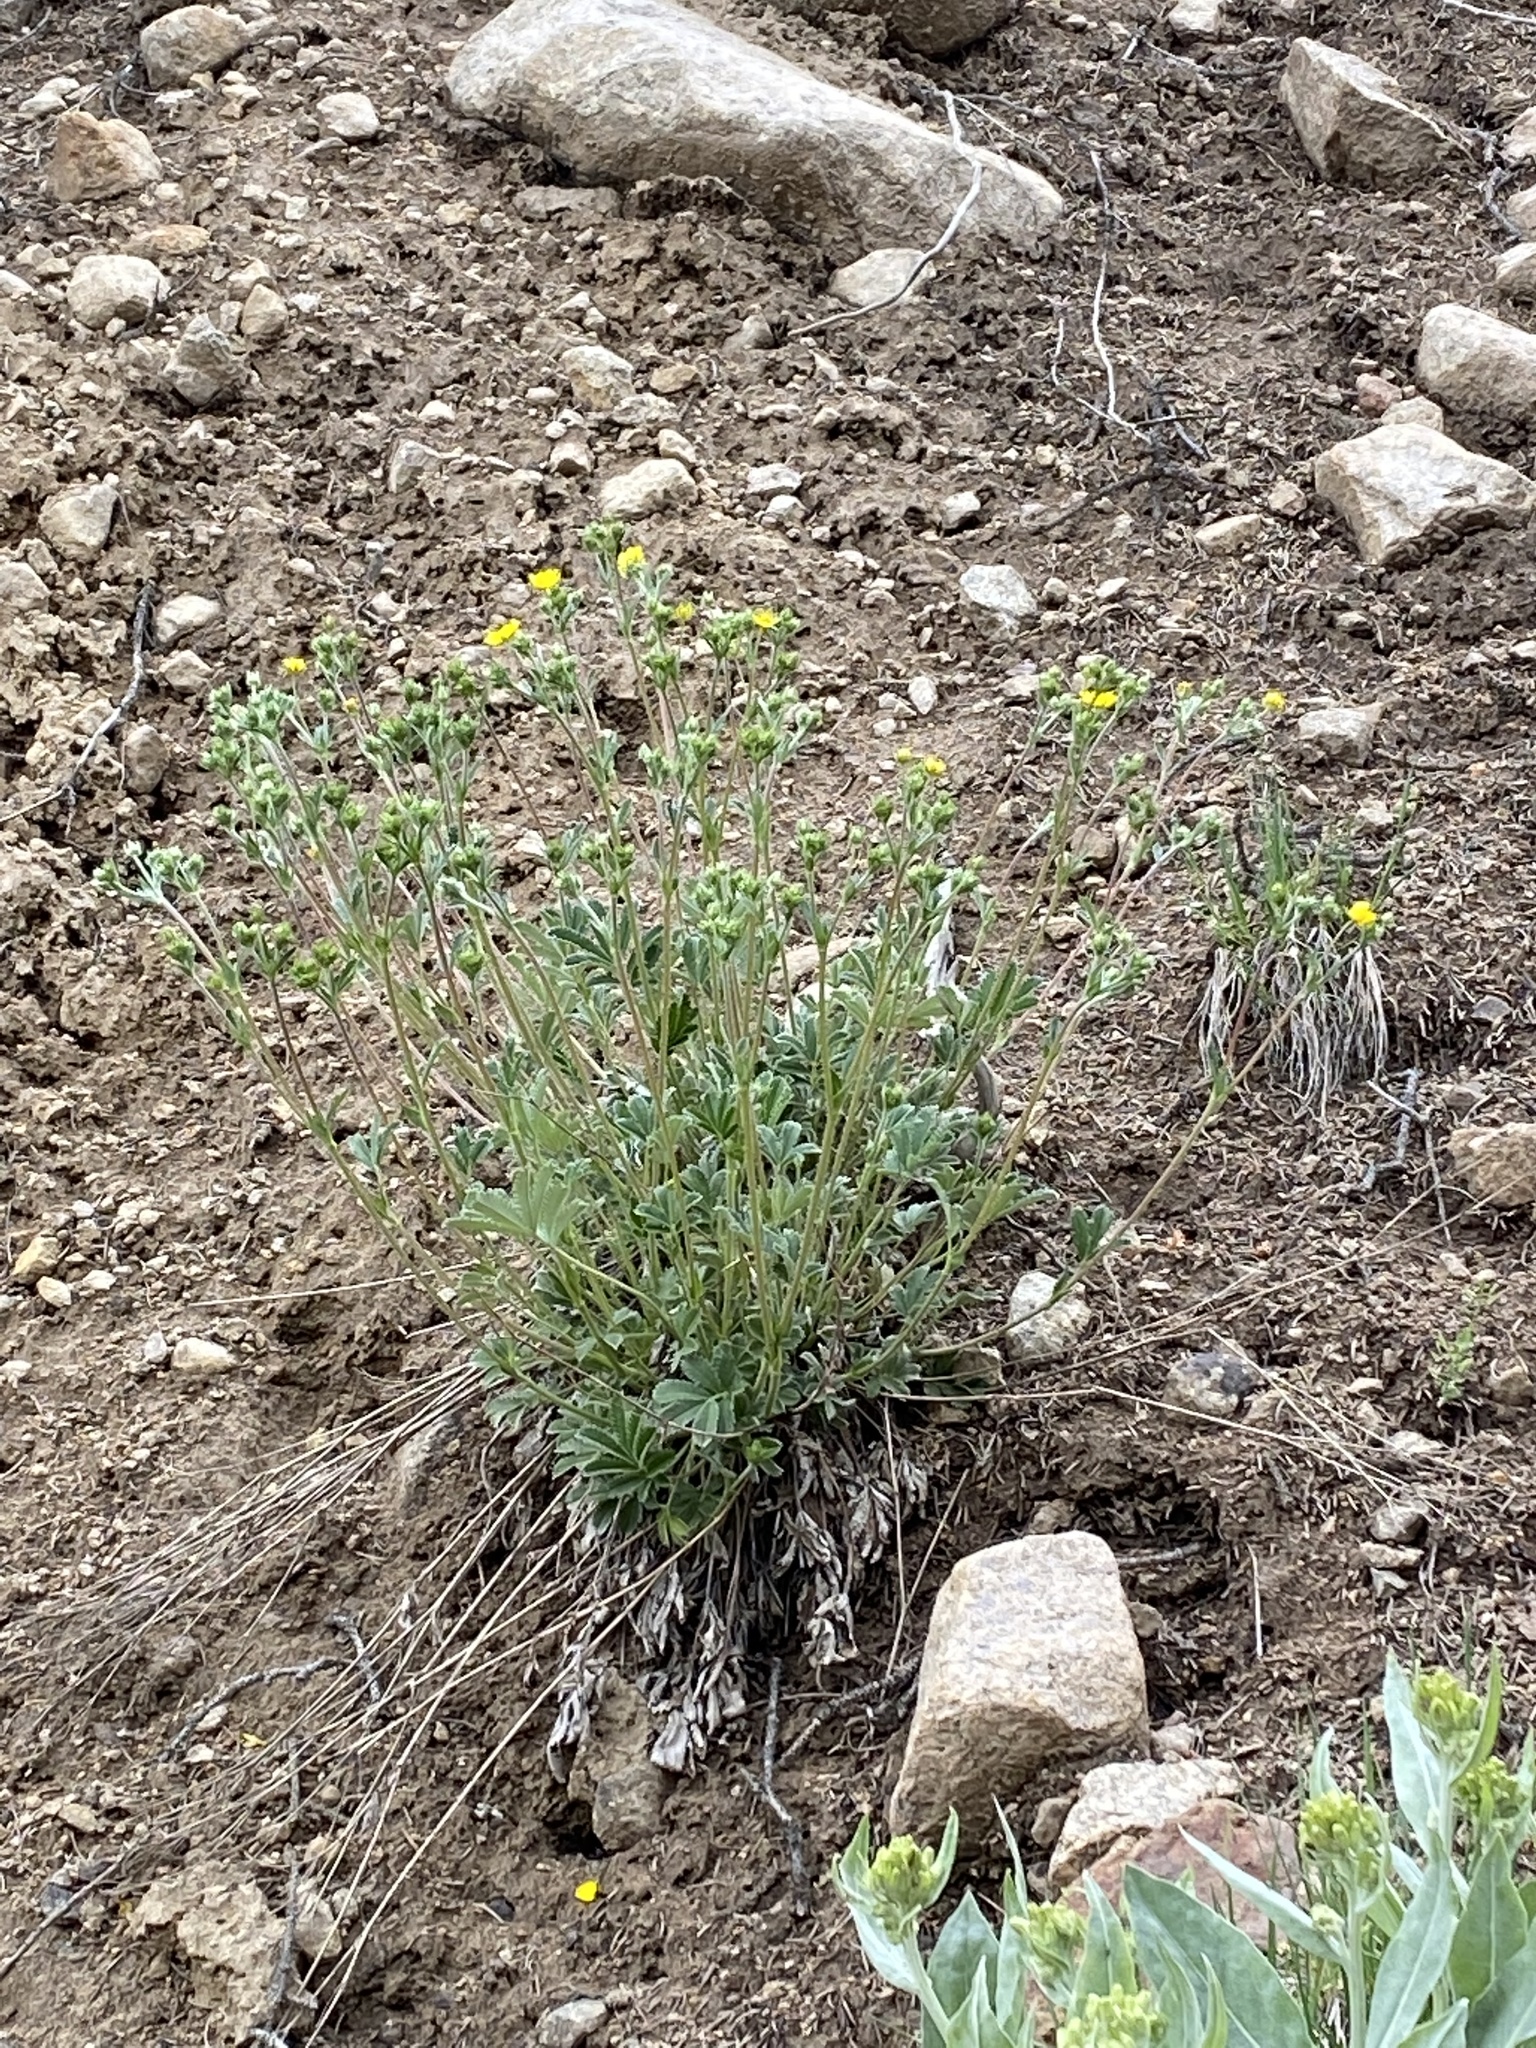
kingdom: Plantae
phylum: Tracheophyta
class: Magnoliopsida
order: Rosales
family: Rosaceae
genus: Potentilla
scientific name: Potentilla
